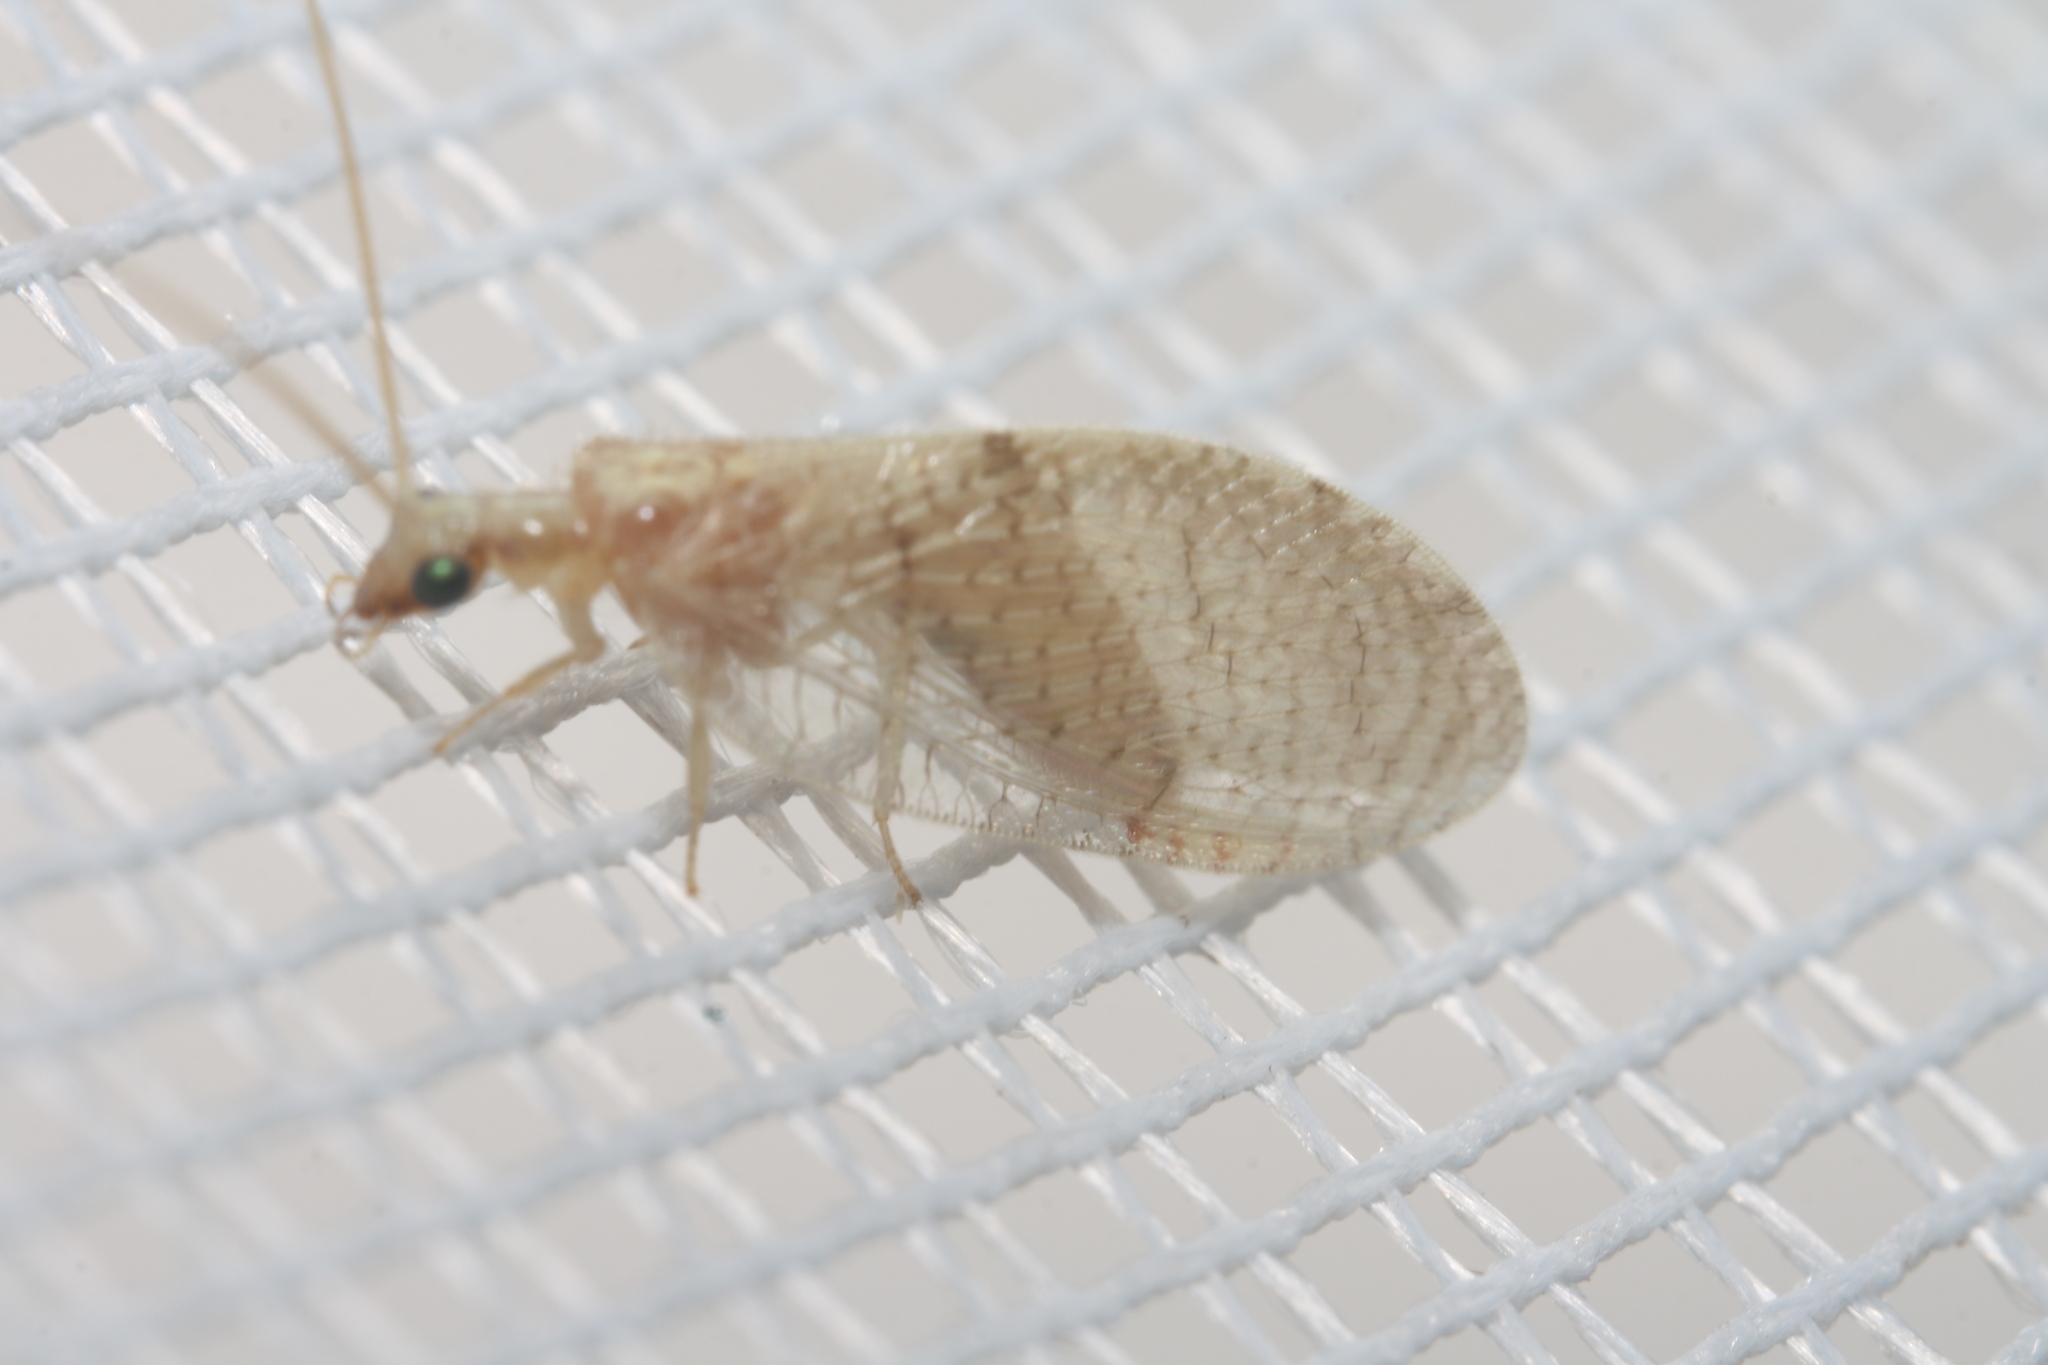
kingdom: Animalia
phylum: Arthropoda
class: Insecta
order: Neuroptera
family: Hemerobiidae
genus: Hemerobius
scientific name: Hemerobius gilvus
